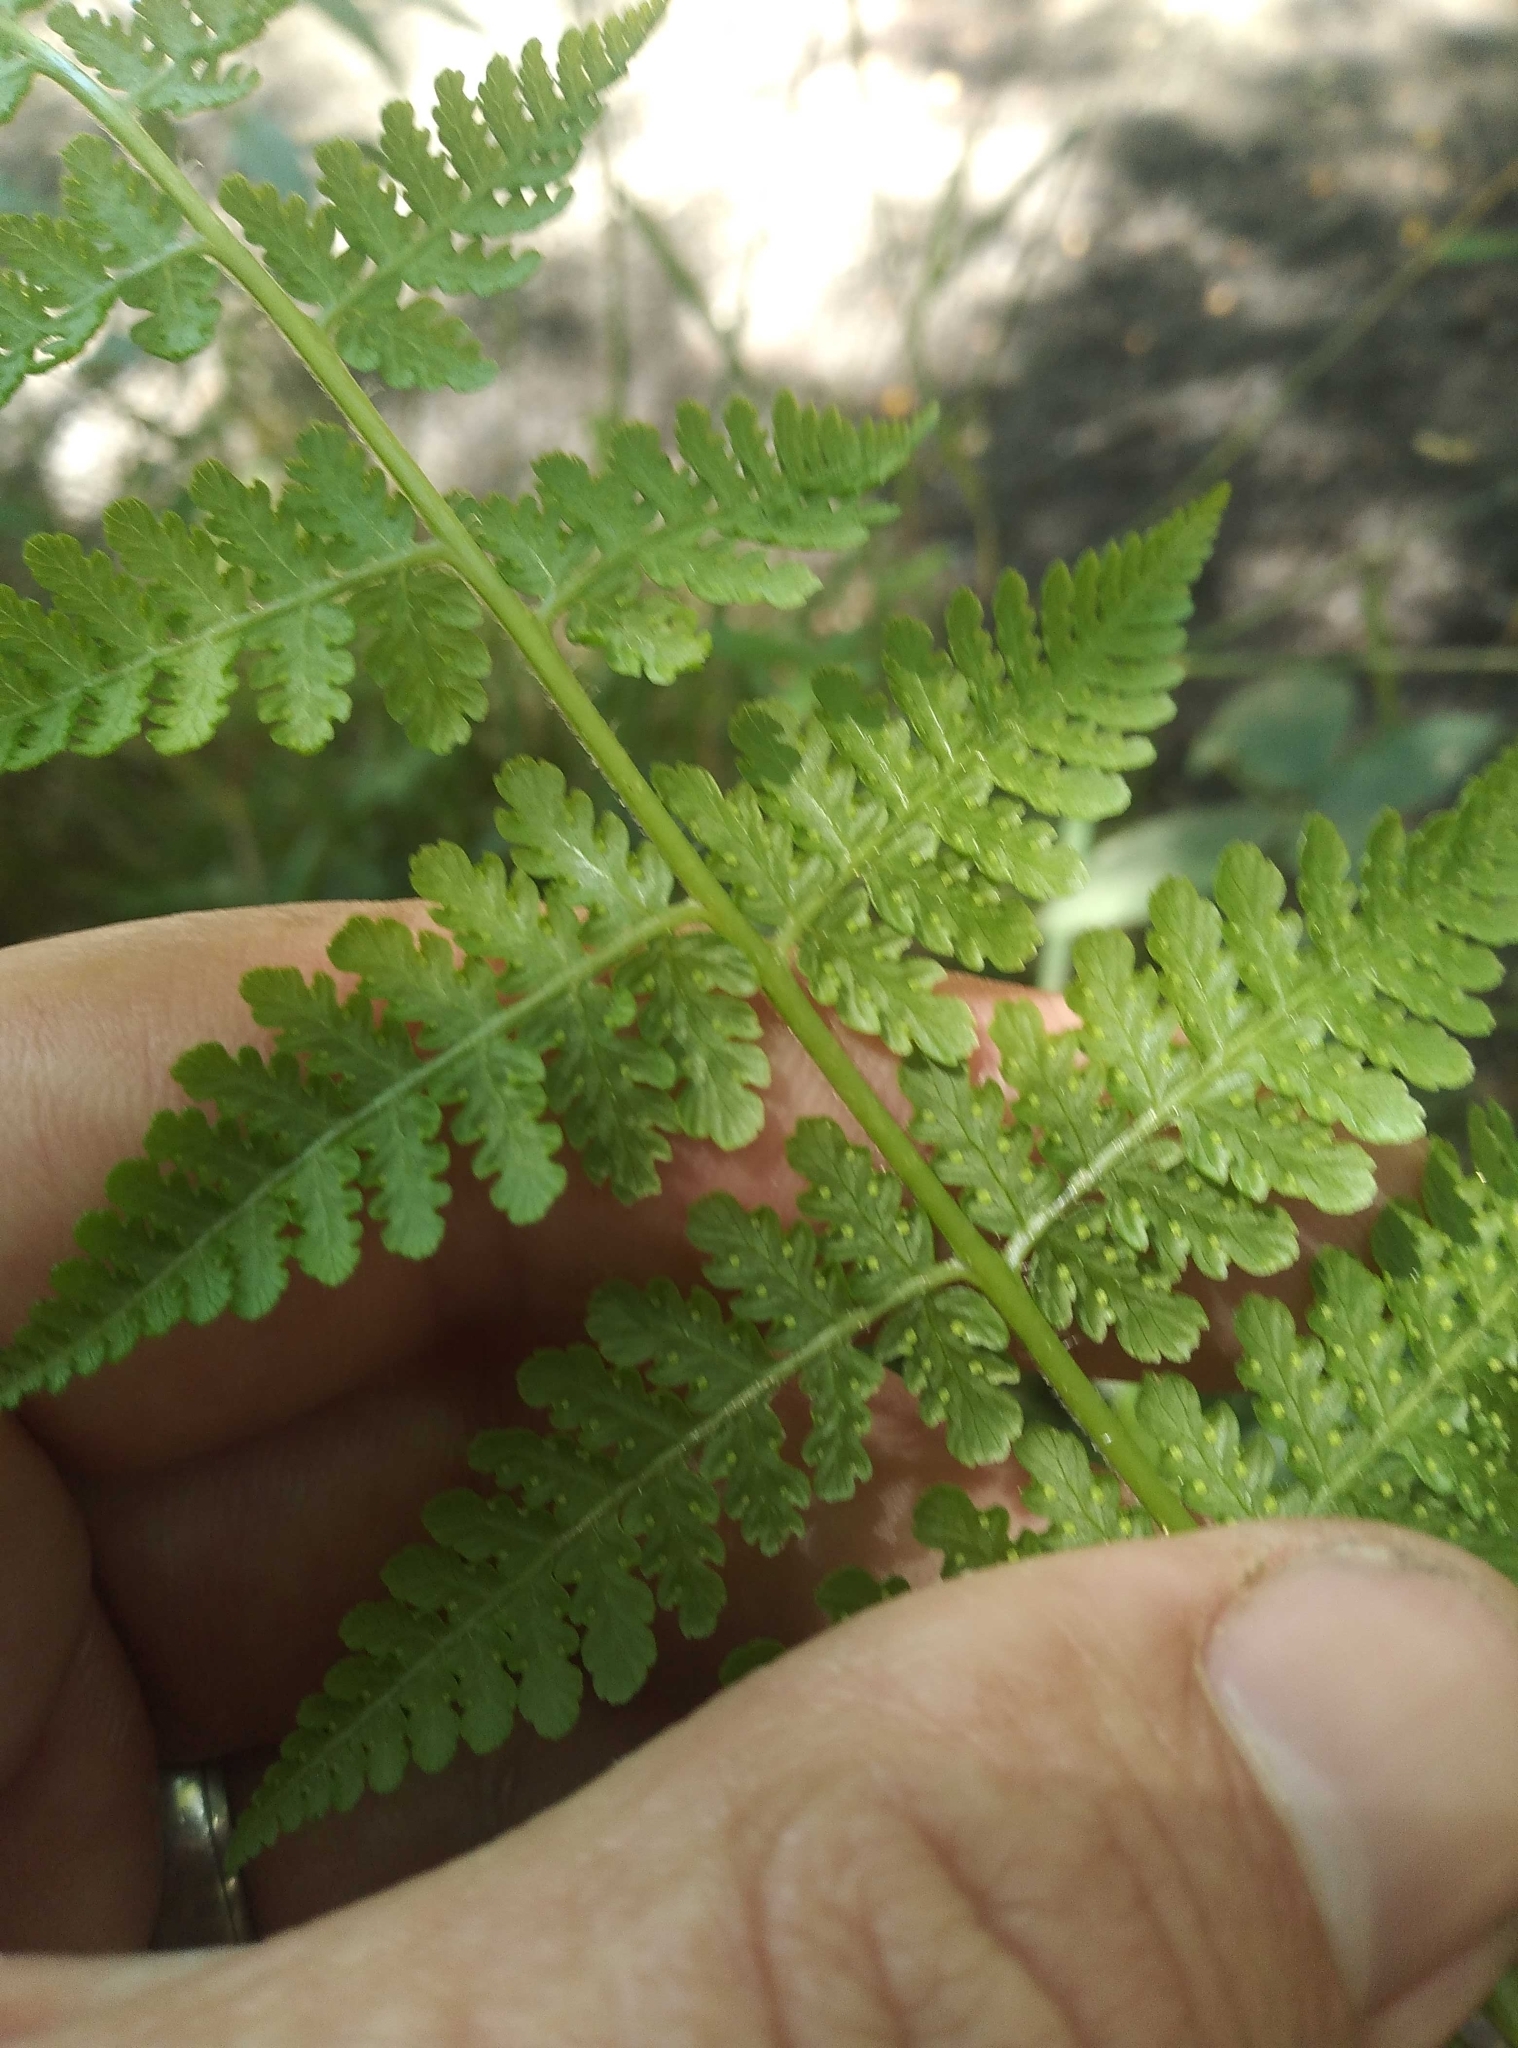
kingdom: Plantae
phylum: Tracheophyta
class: Polypodiopsida
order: Polypodiales
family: Dennstaedtiaceae
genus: Hypolepis
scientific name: Hypolepis ambigua
